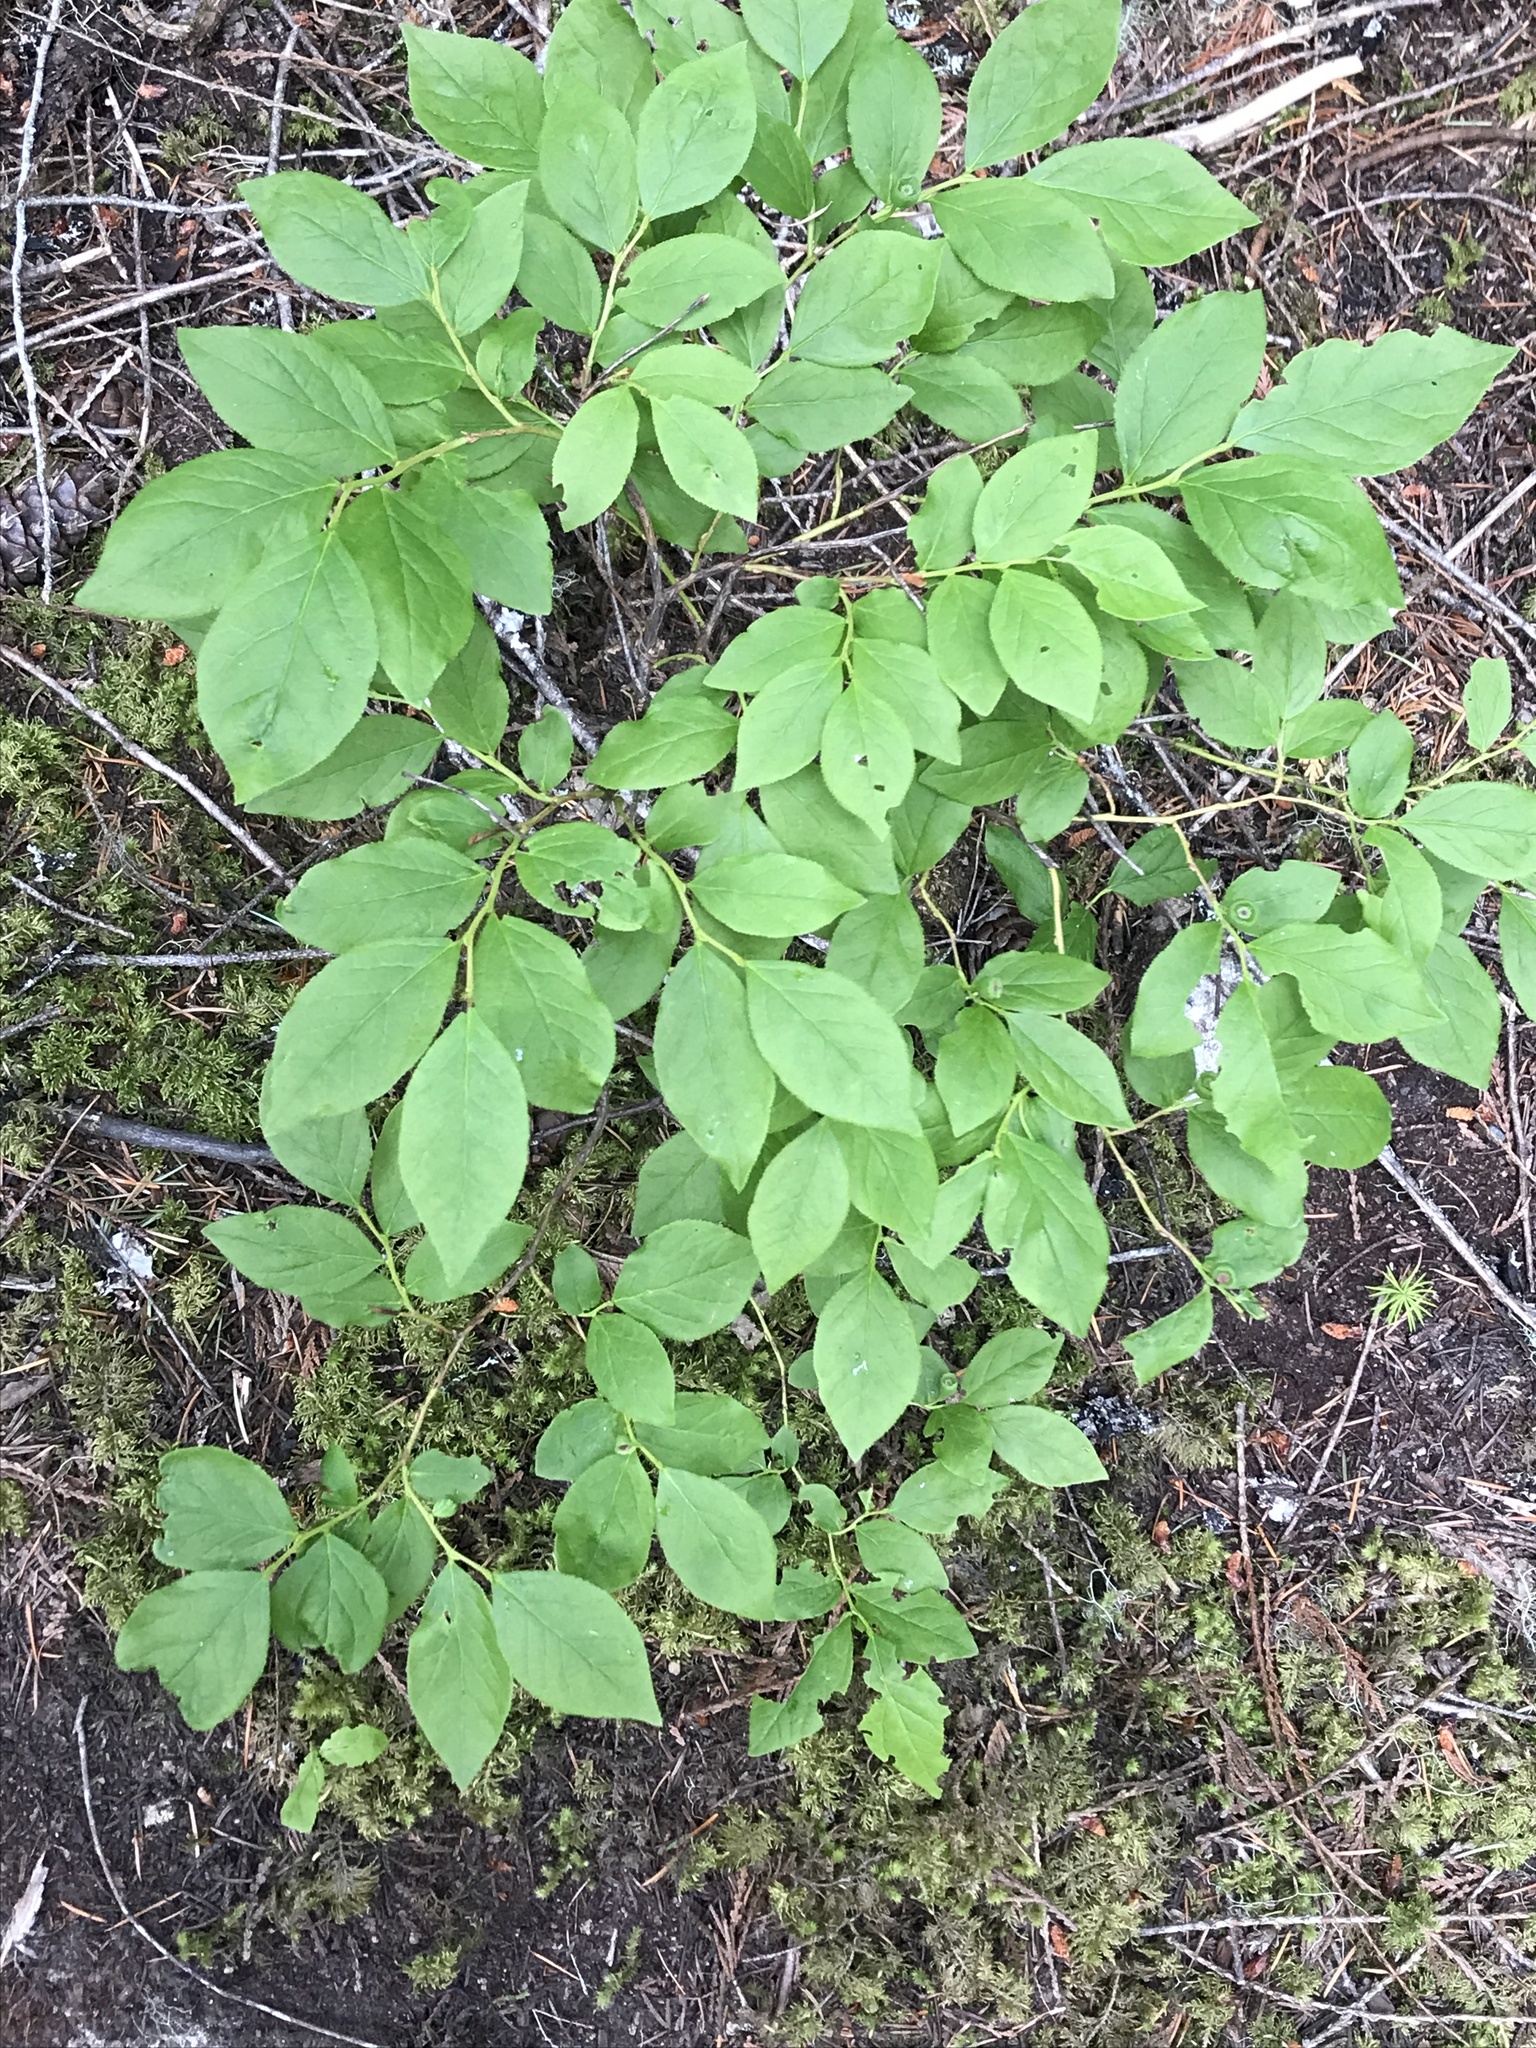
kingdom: Plantae
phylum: Tracheophyta
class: Magnoliopsida
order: Ericales
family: Ericaceae
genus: Vaccinium
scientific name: Vaccinium membranaceum
